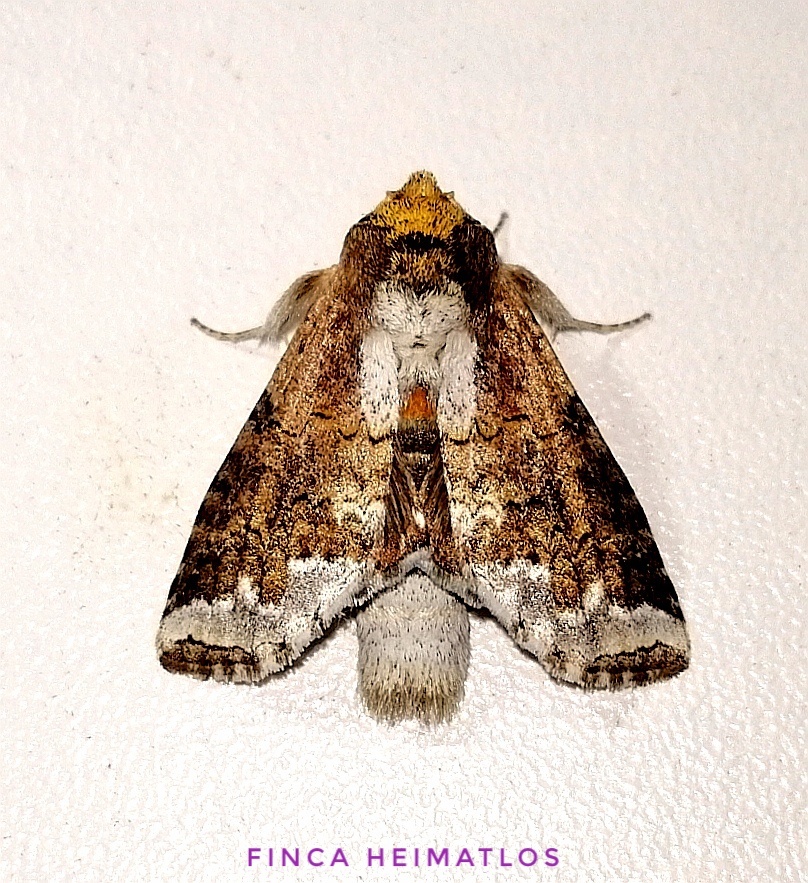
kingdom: Animalia
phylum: Arthropoda
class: Insecta
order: Lepidoptera
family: Notodontidae
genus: Sericochroa
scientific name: Sericochroa lauta
